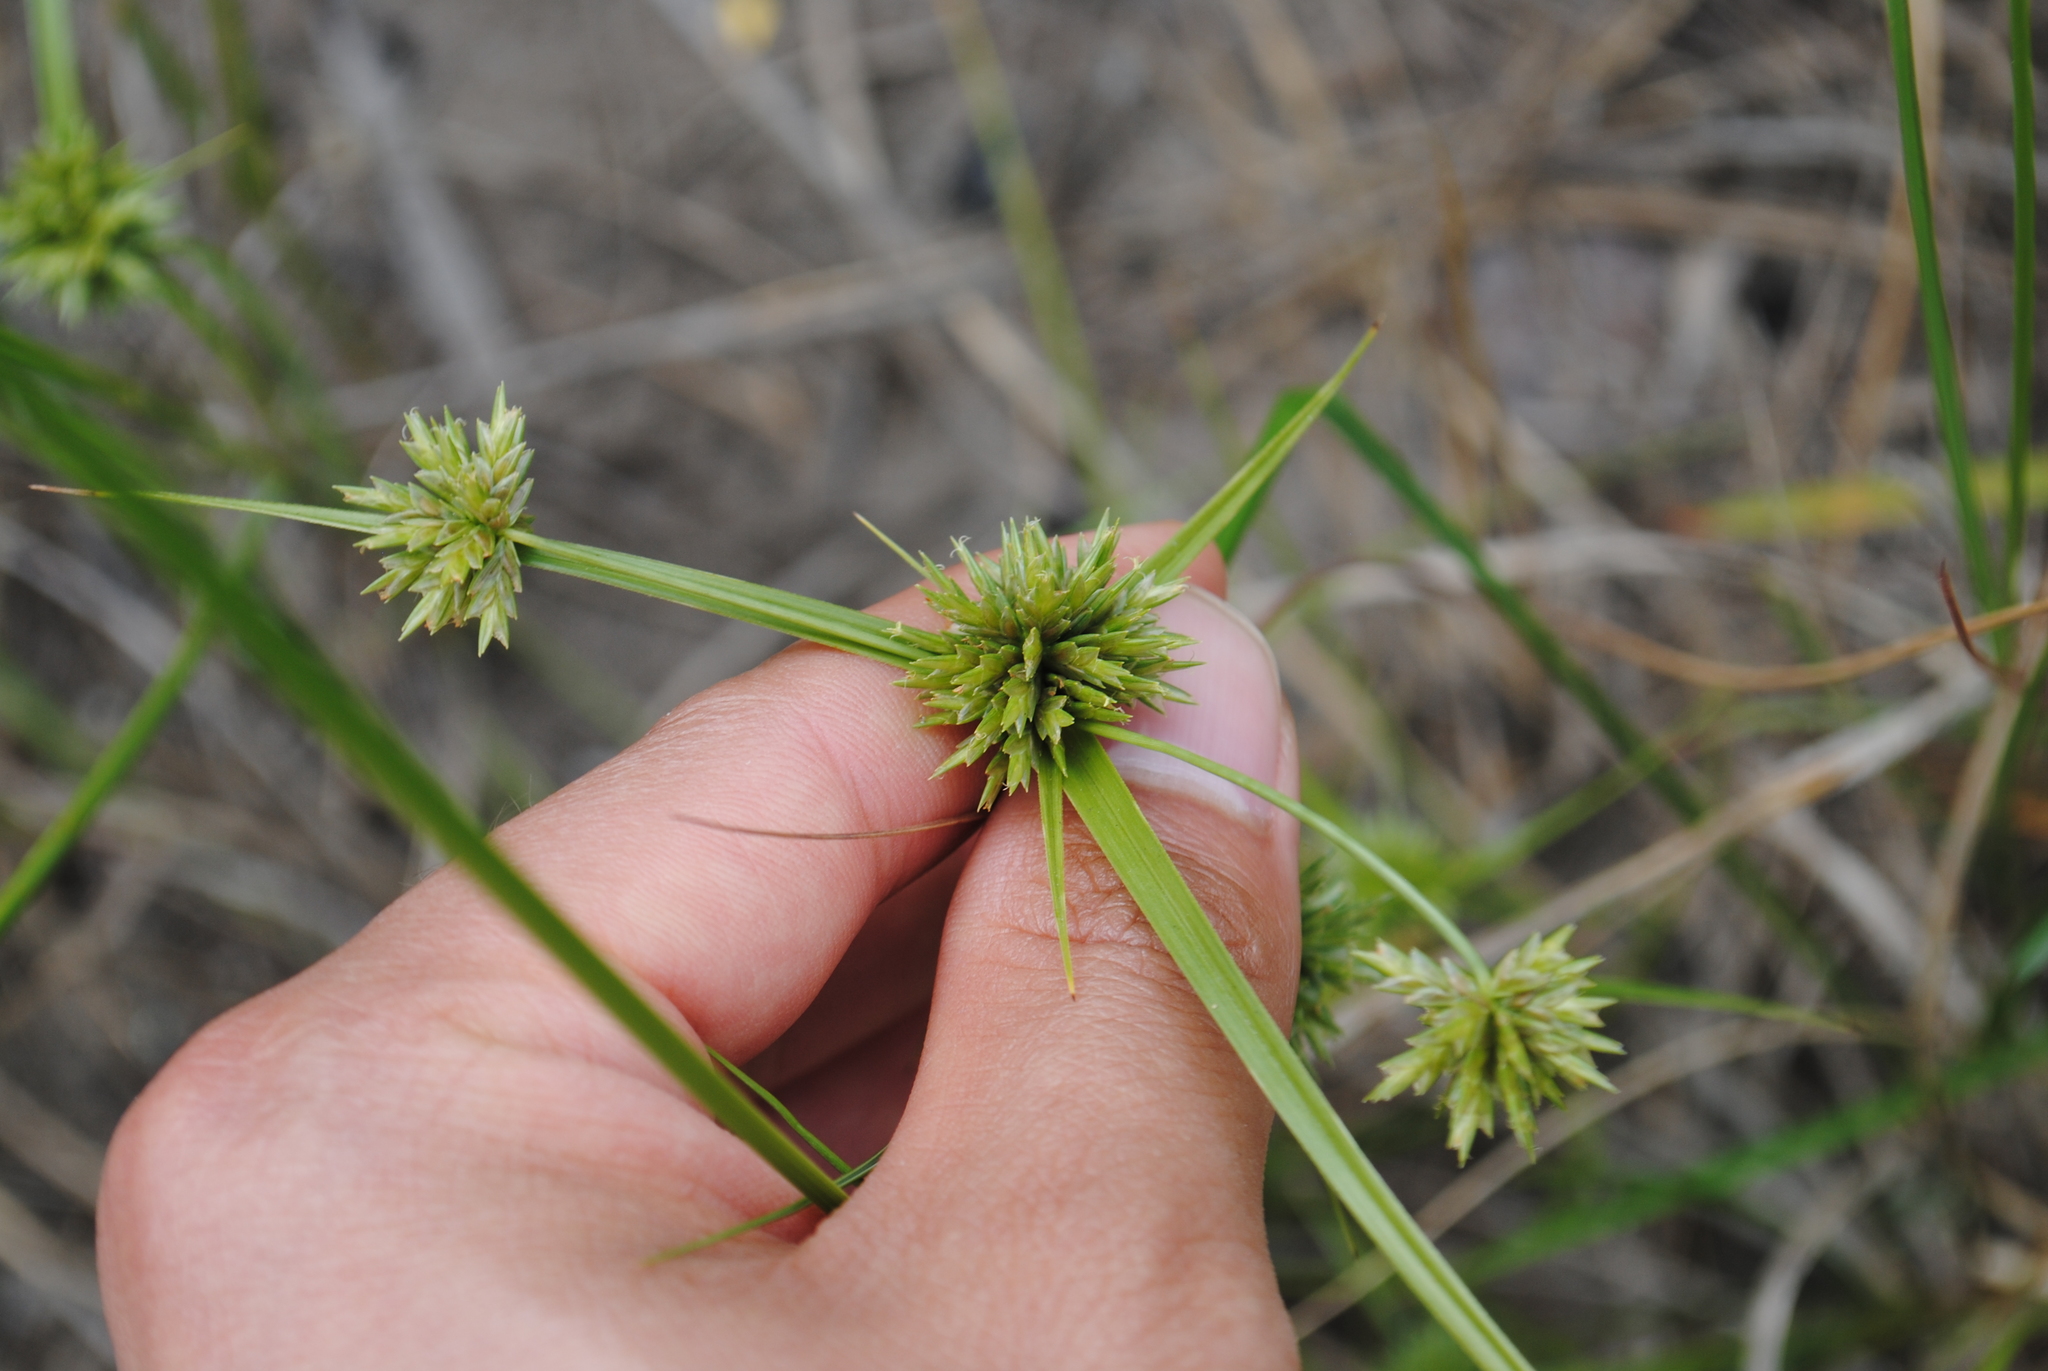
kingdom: Plantae
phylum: Tracheophyta
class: Liliopsida
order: Poales
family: Cyperaceae
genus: Cyperus
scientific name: Cyperus lupulinus
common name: Great plains flatsedge
